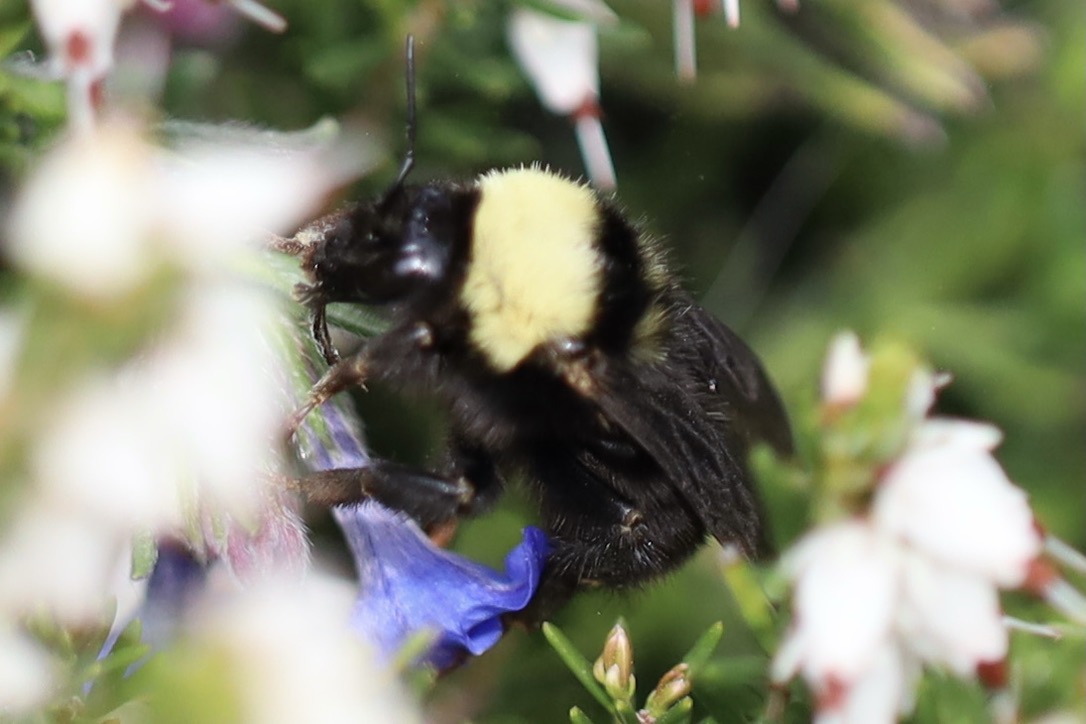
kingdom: Animalia
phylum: Arthropoda
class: Insecta
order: Hymenoptera
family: Apidae
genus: Bombus
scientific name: Bombus californicus
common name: California bumble bee
